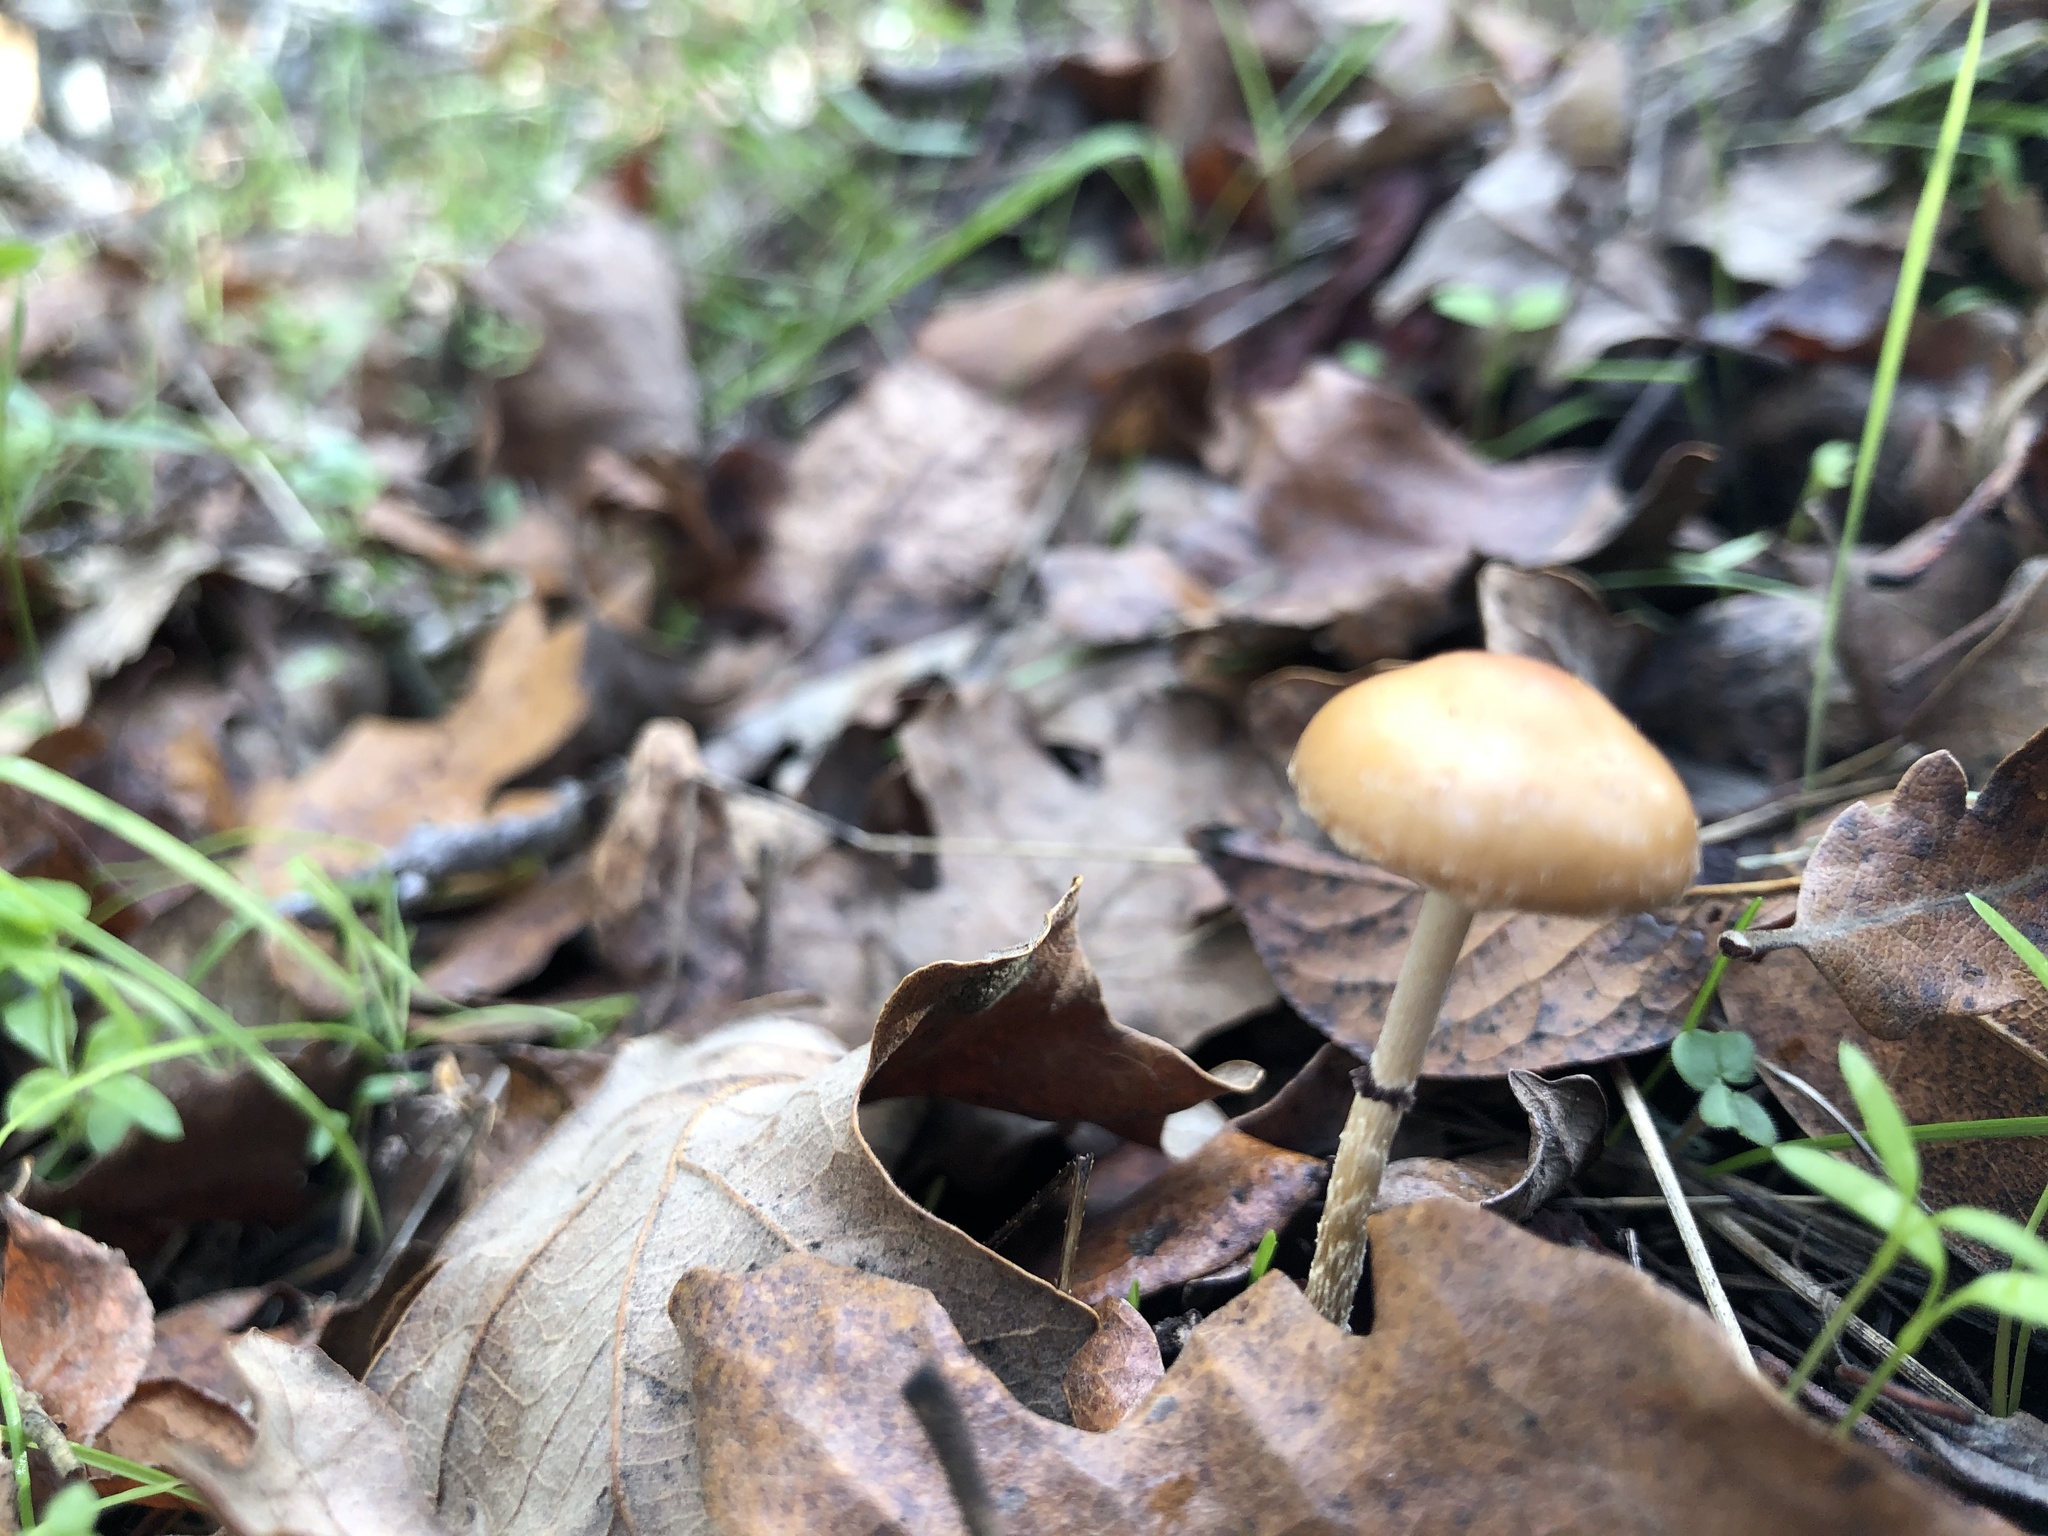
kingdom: Fungi
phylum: Basidiomycota
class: Agaricomycetes
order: Agaricales
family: Strophariaceae
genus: Stropharia
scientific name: Stropharia ambigua
